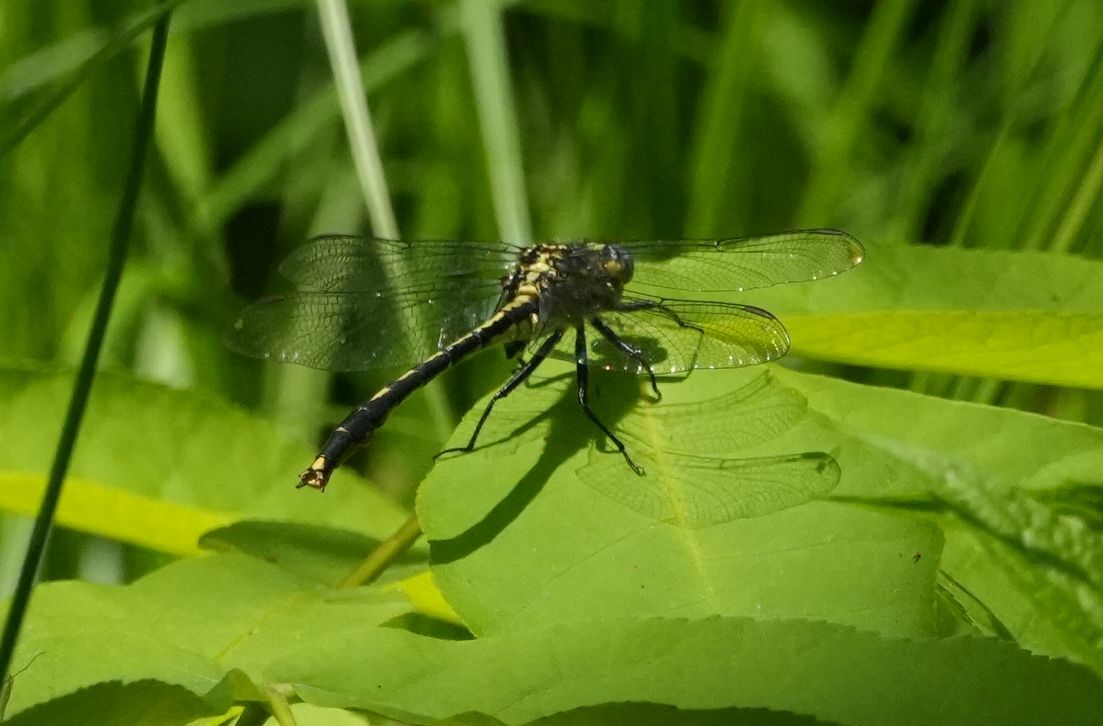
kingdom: Animalia
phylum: Arthropoda
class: Insecta
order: Odonata
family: Gomphidae
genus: Arigomphus
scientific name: Arigomphus furcifer
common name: Lilypad clubtail
